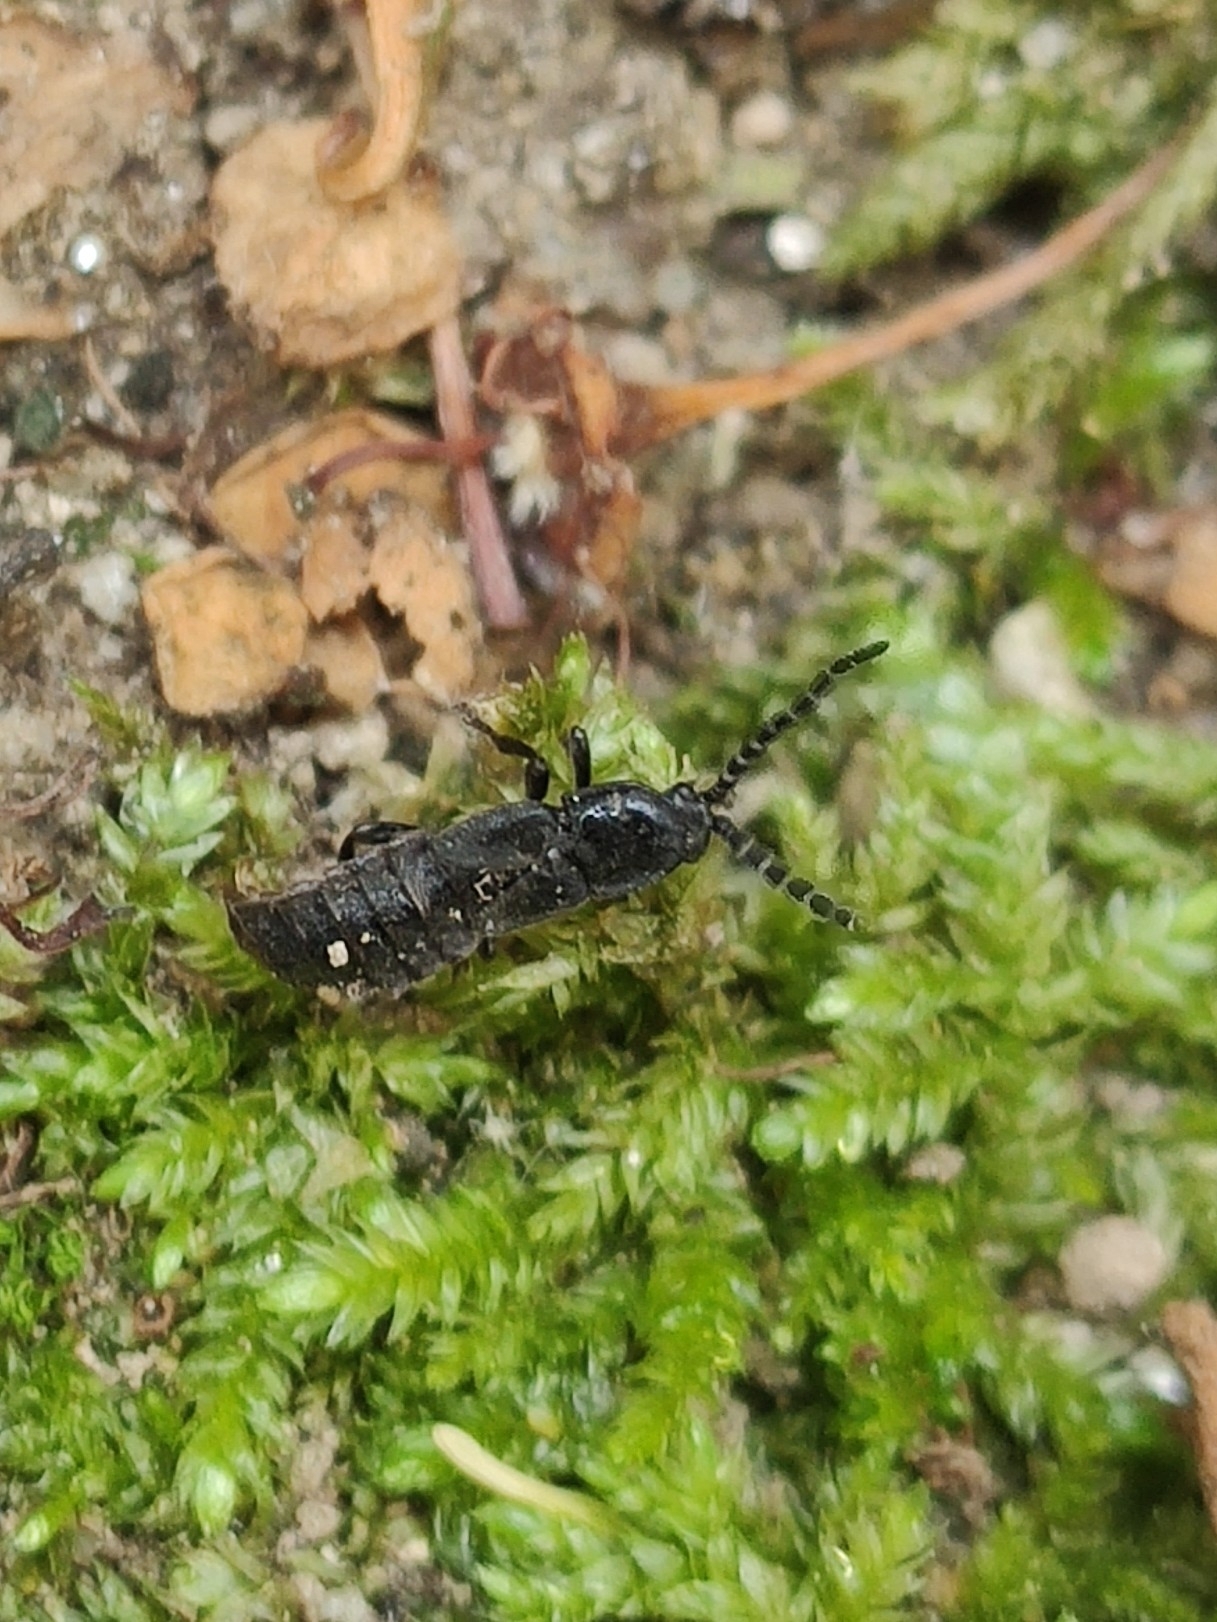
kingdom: Animalia
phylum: Arthropoda
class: Insecta
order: Coleoptera
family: Lampyridae
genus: Phosphaenus
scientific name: Phosphaenus hemipterus
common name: Short-winged firefly
